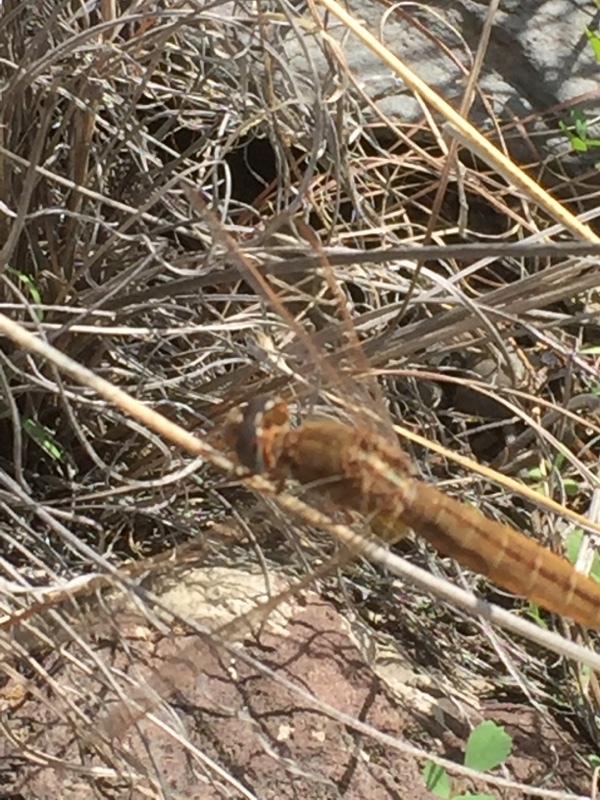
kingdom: Animalia
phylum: Arthropoda
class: Insecta
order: Odonata
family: Libellulidae
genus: Crocothemis
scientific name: Crocothemis erythraea
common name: Scarlet dragonfly
